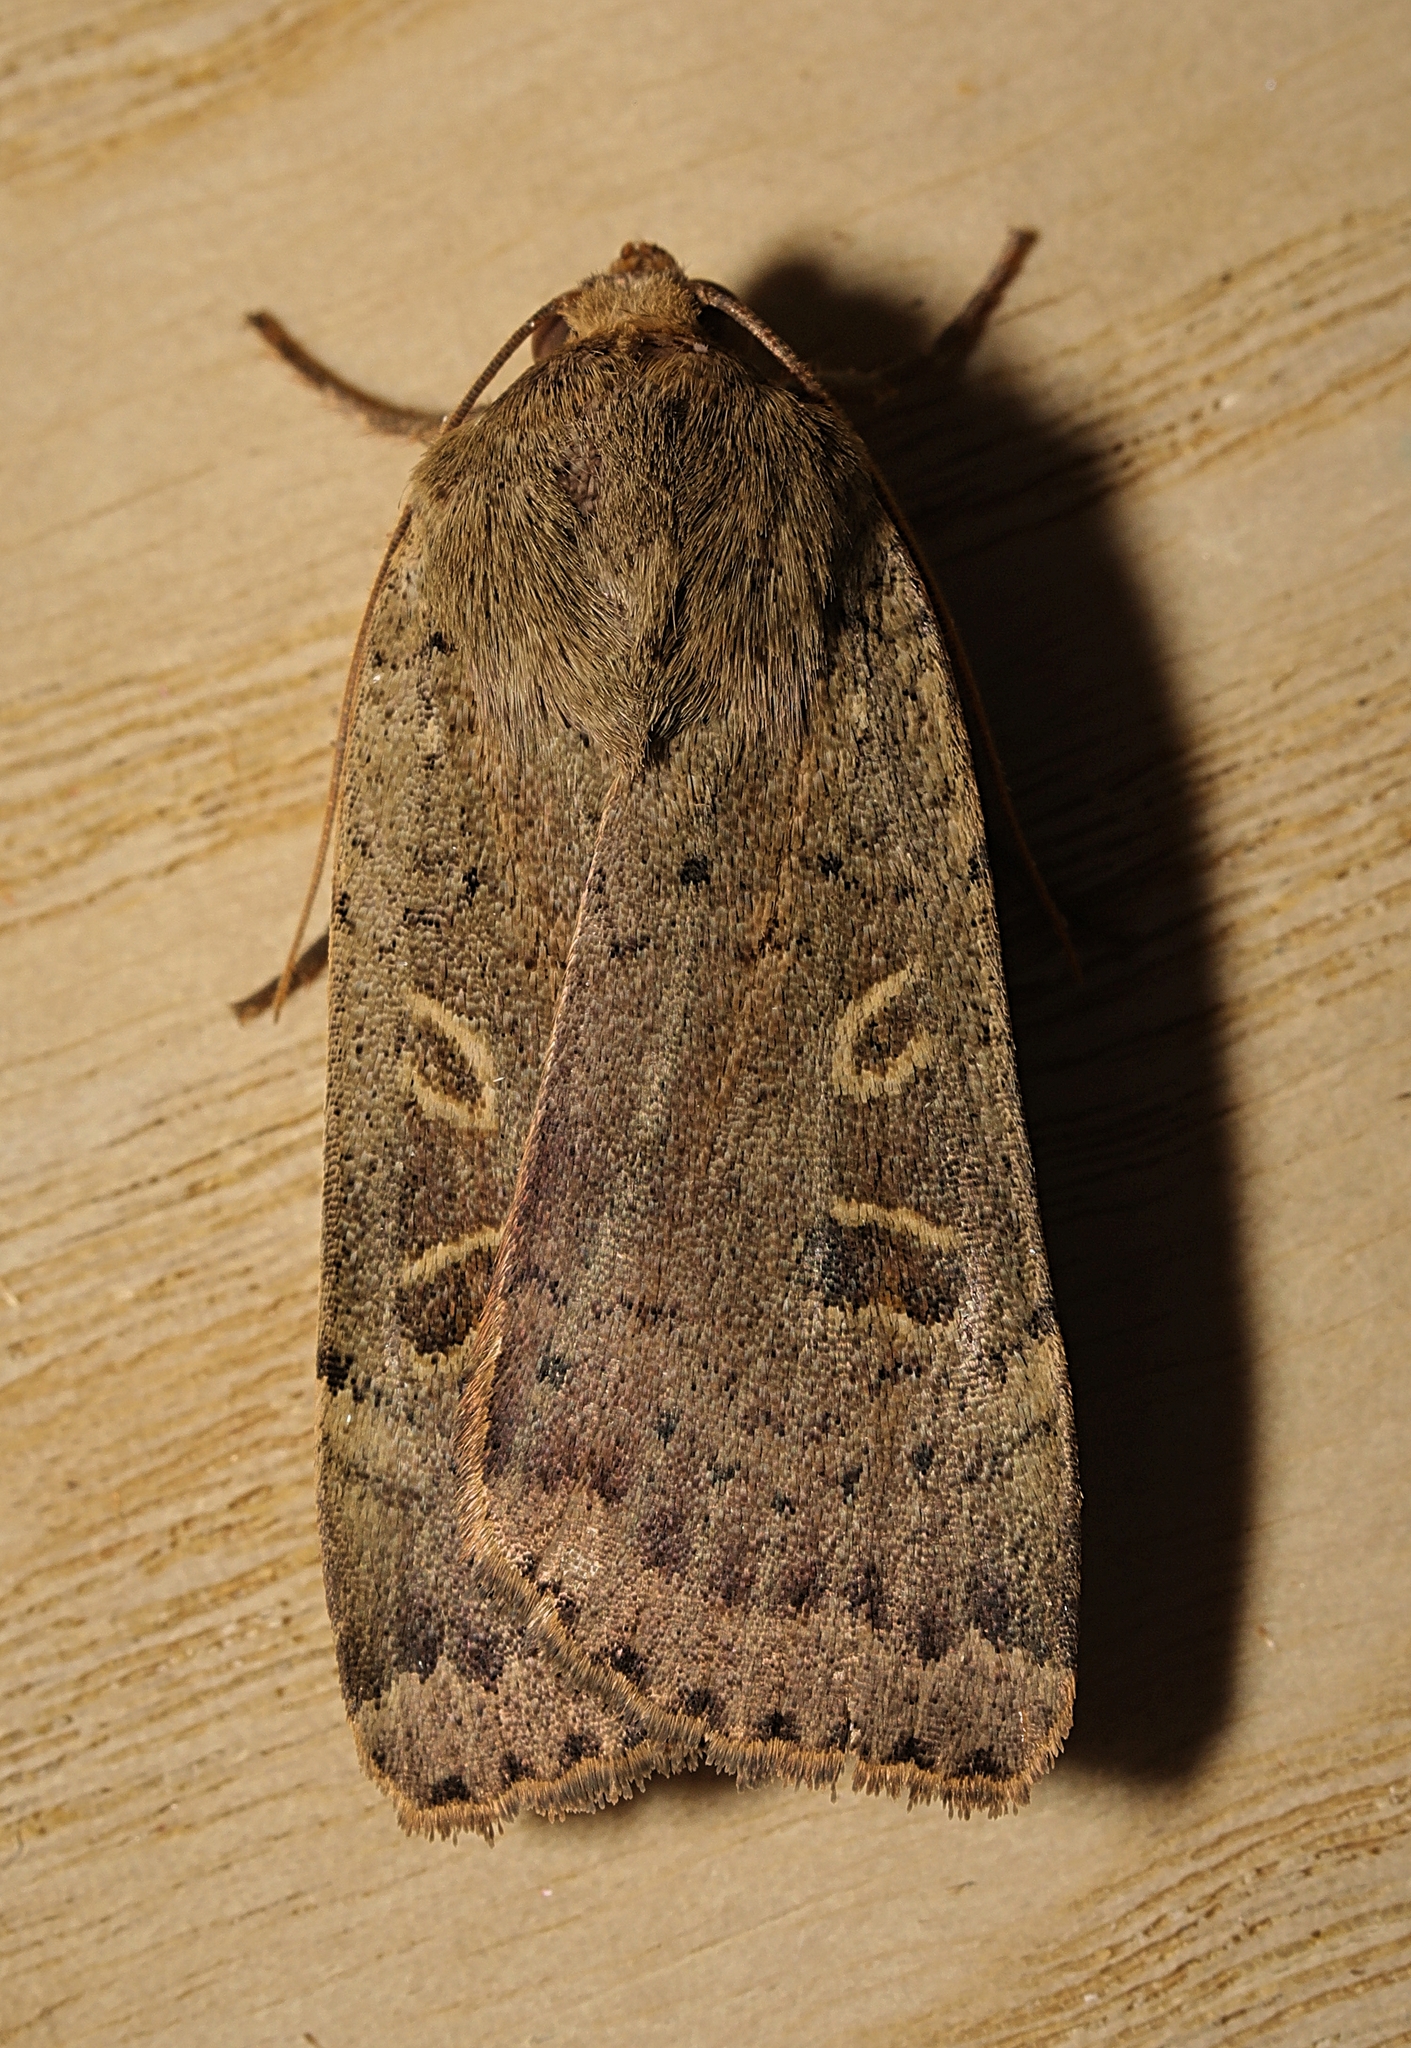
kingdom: Animalia
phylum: Arthropoda
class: Insecta
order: Lepidoptera
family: Noctuidae
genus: Noctua
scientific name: Noctua comes
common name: Lesser yellow underwing
